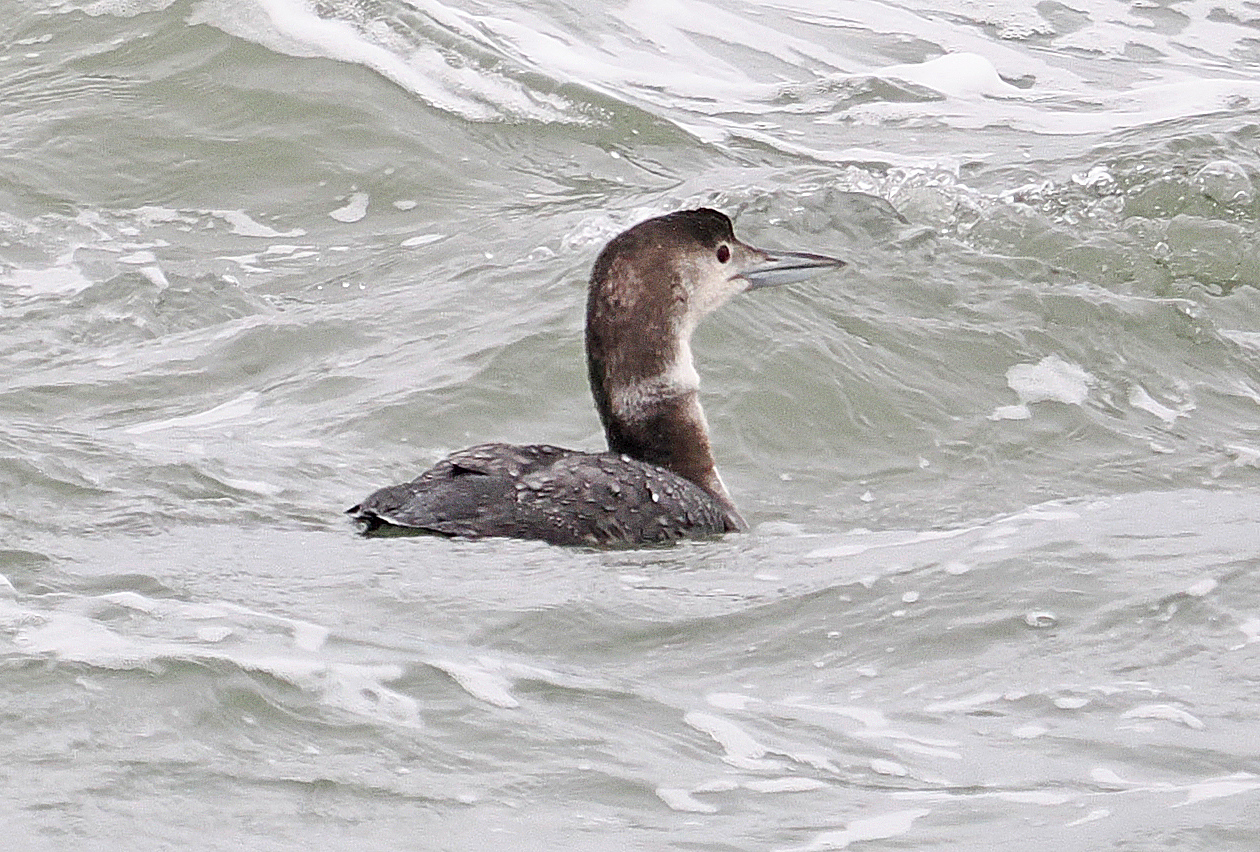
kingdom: Animalia
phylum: Chordata
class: Aves
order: Gaviiformes
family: Gaviidae
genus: Gavia
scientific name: Gavia immer
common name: Common loon
